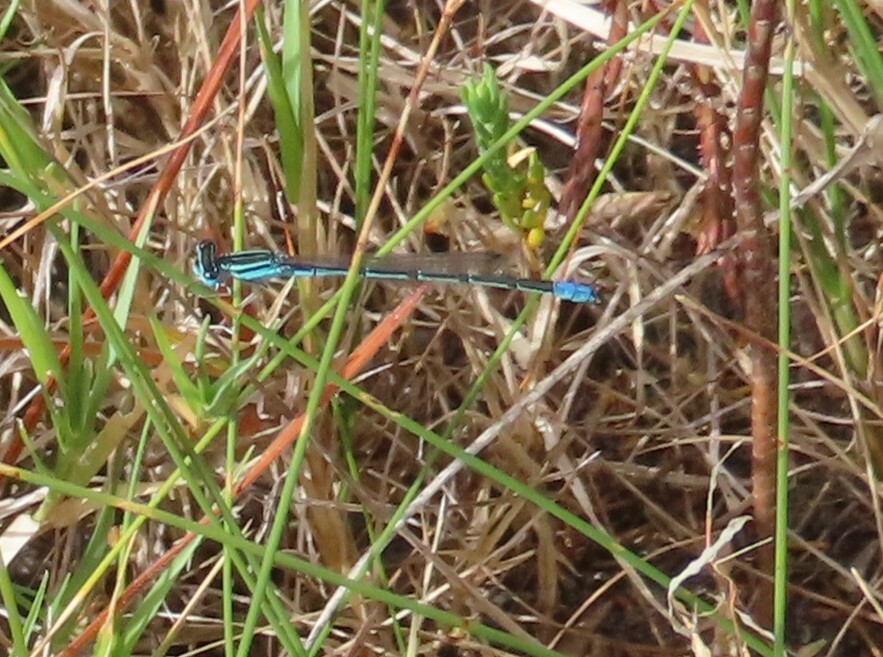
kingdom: Animalia
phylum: Arthropoda
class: Insecta
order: Odonata
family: Coenagrionidae
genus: Africallagma
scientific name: Africallagma glaucum
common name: Swamp bluet
